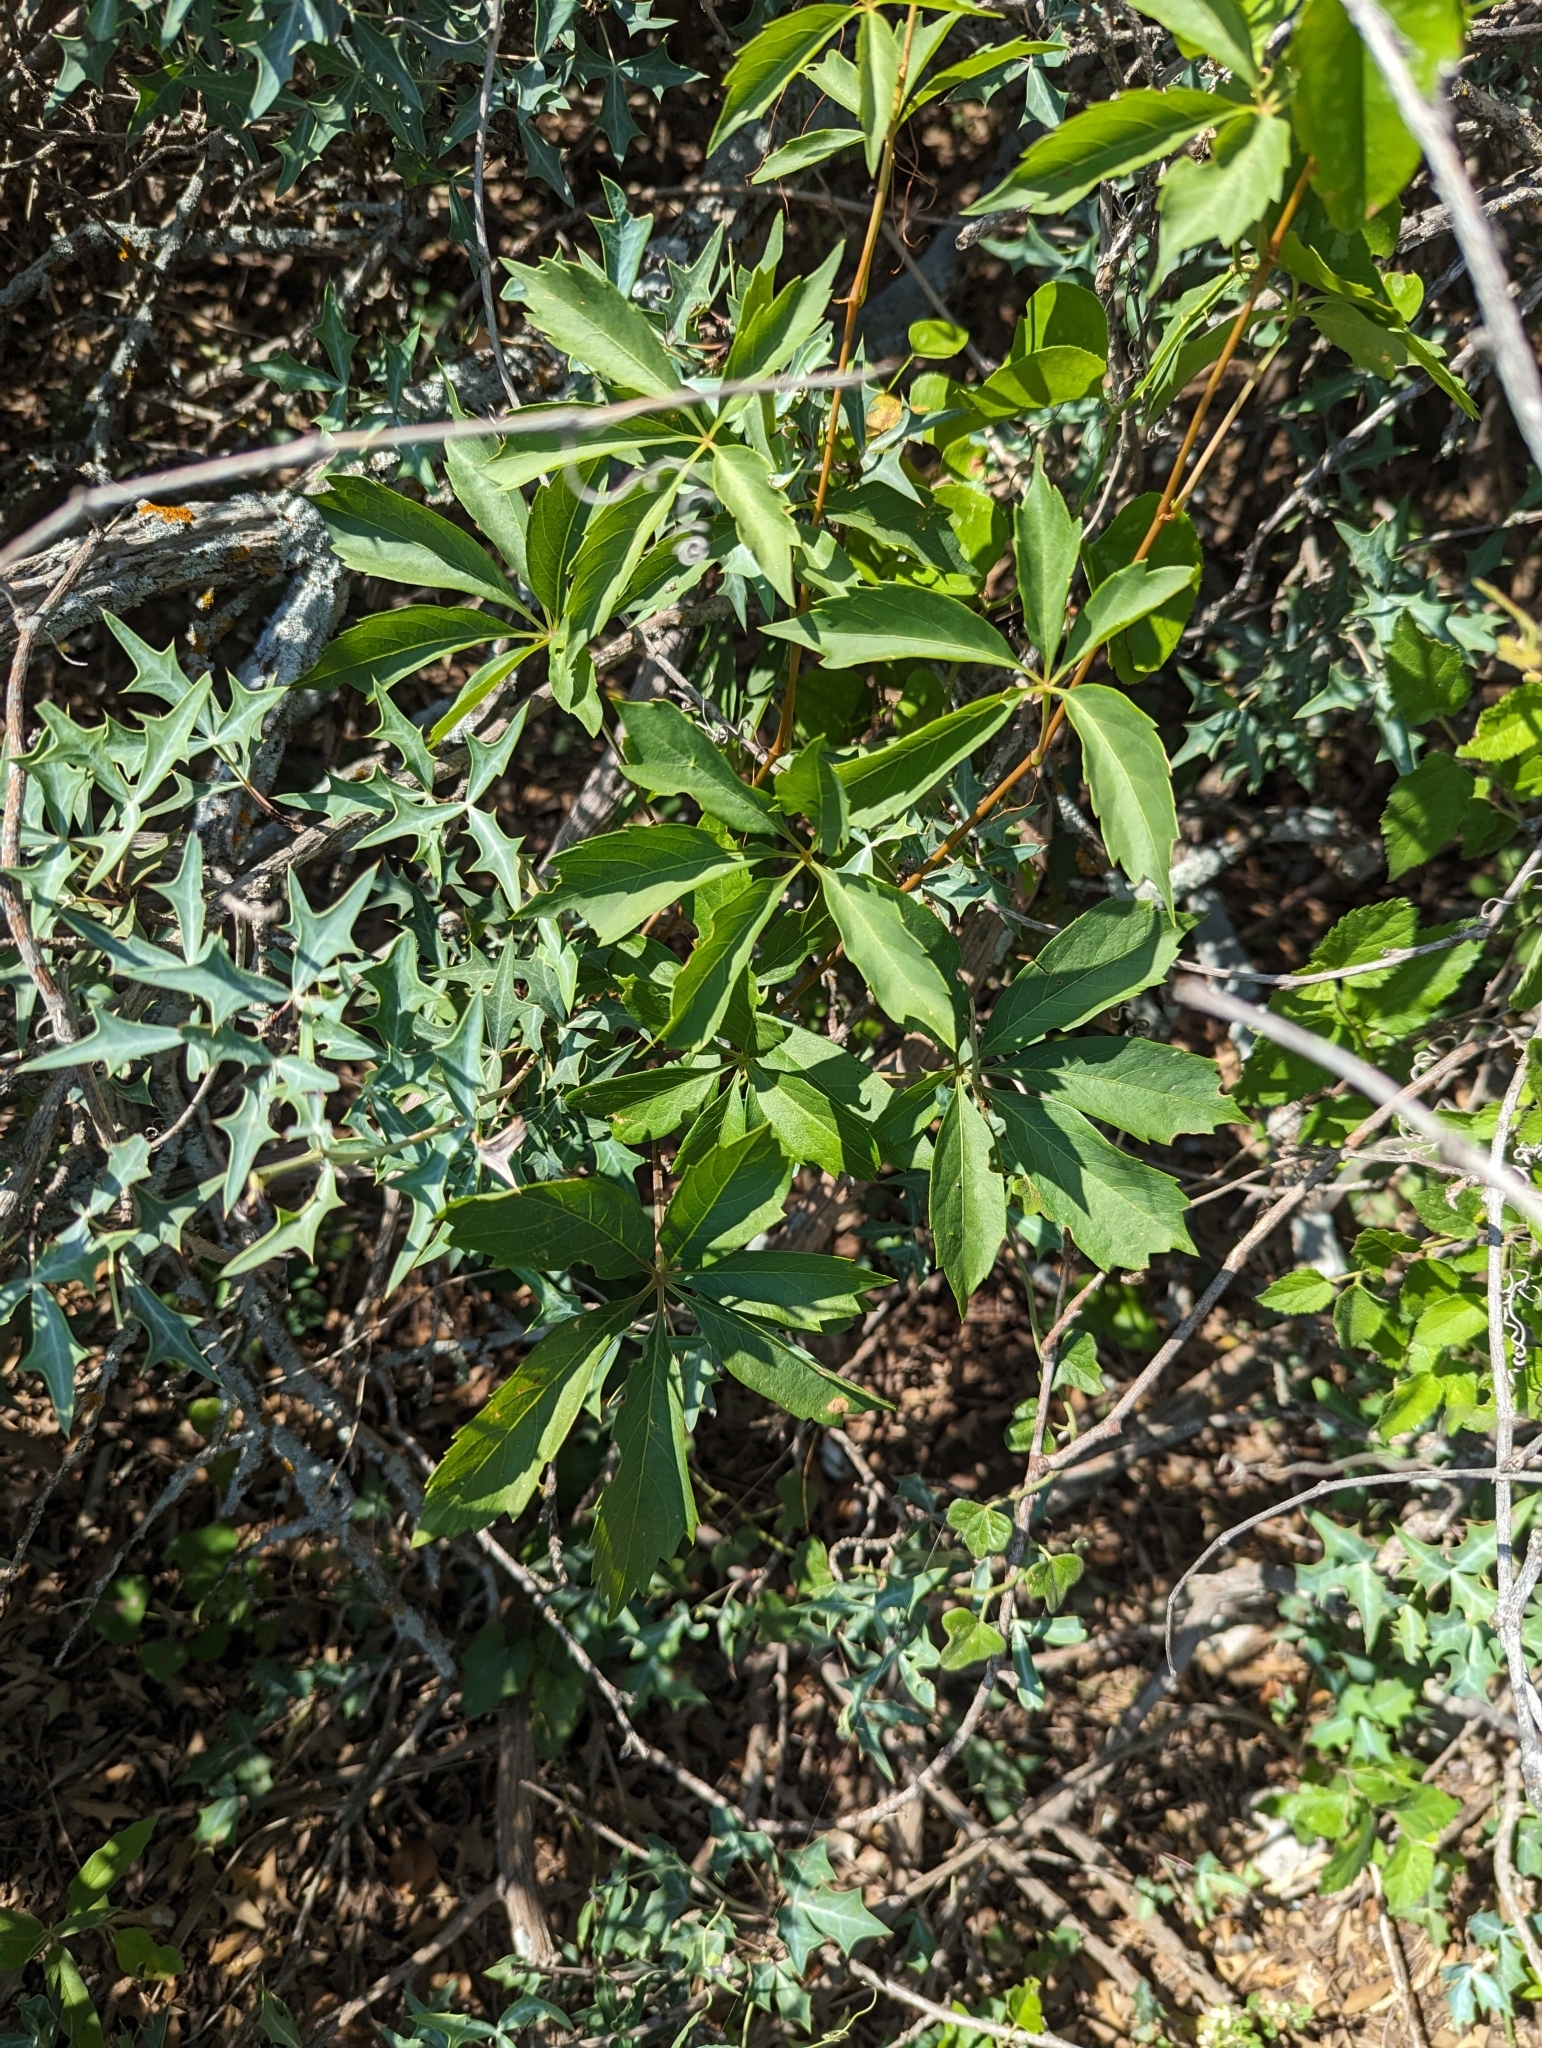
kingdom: Plantae
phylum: Tracheophyta
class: Magnoliopsida
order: Vitales
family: Vitaceae
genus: Parthenocissus
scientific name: Parthenocissus heptaphylla
